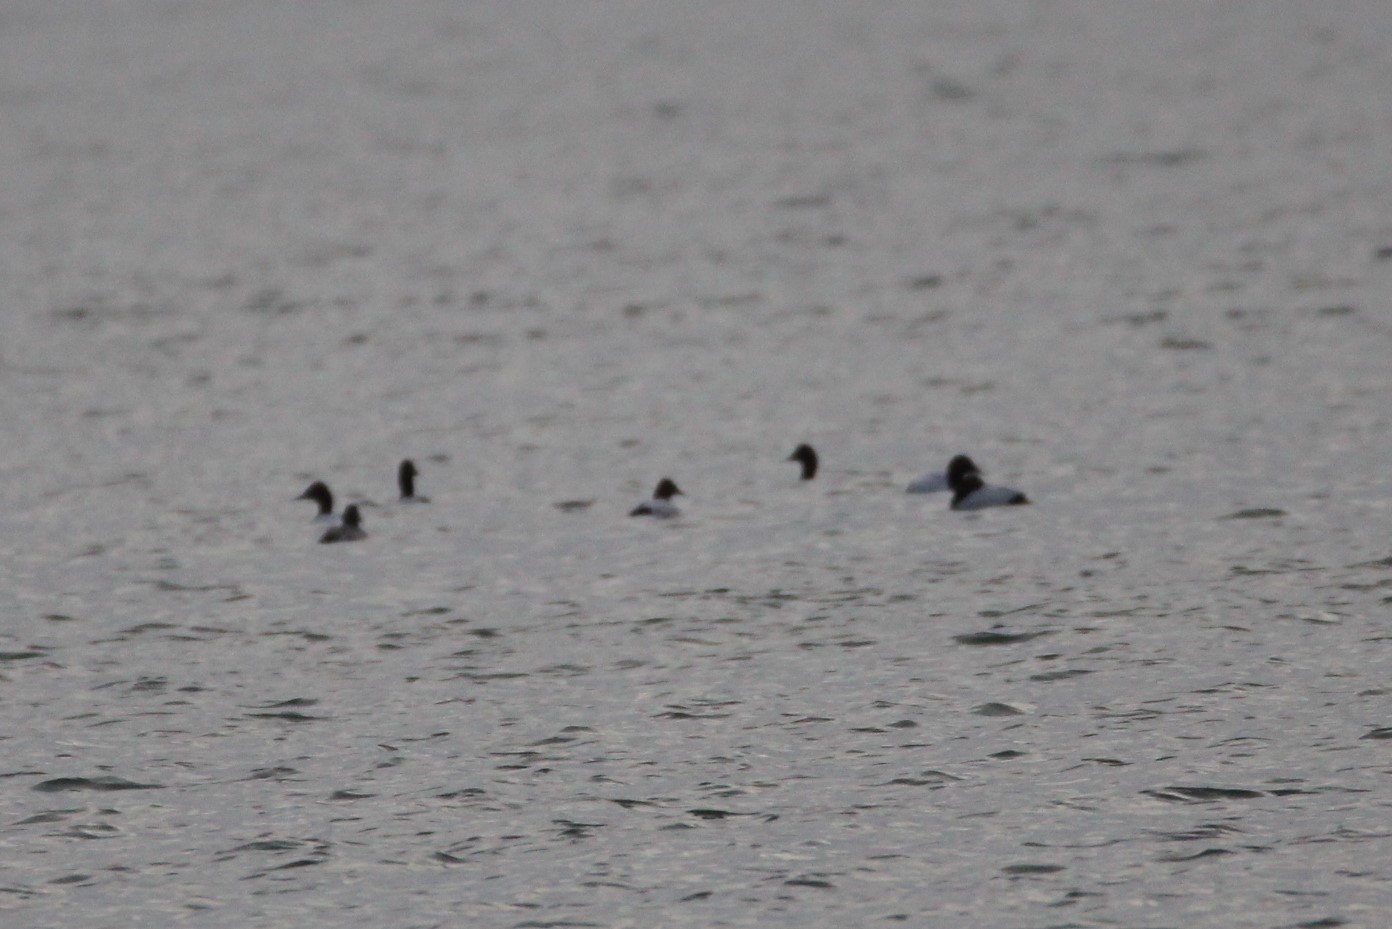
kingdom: Animalia
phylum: Chordata
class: Aves
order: Anseriformes
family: Anatidae
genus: Aythya
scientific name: Aythya valisineria
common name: Canvasback
